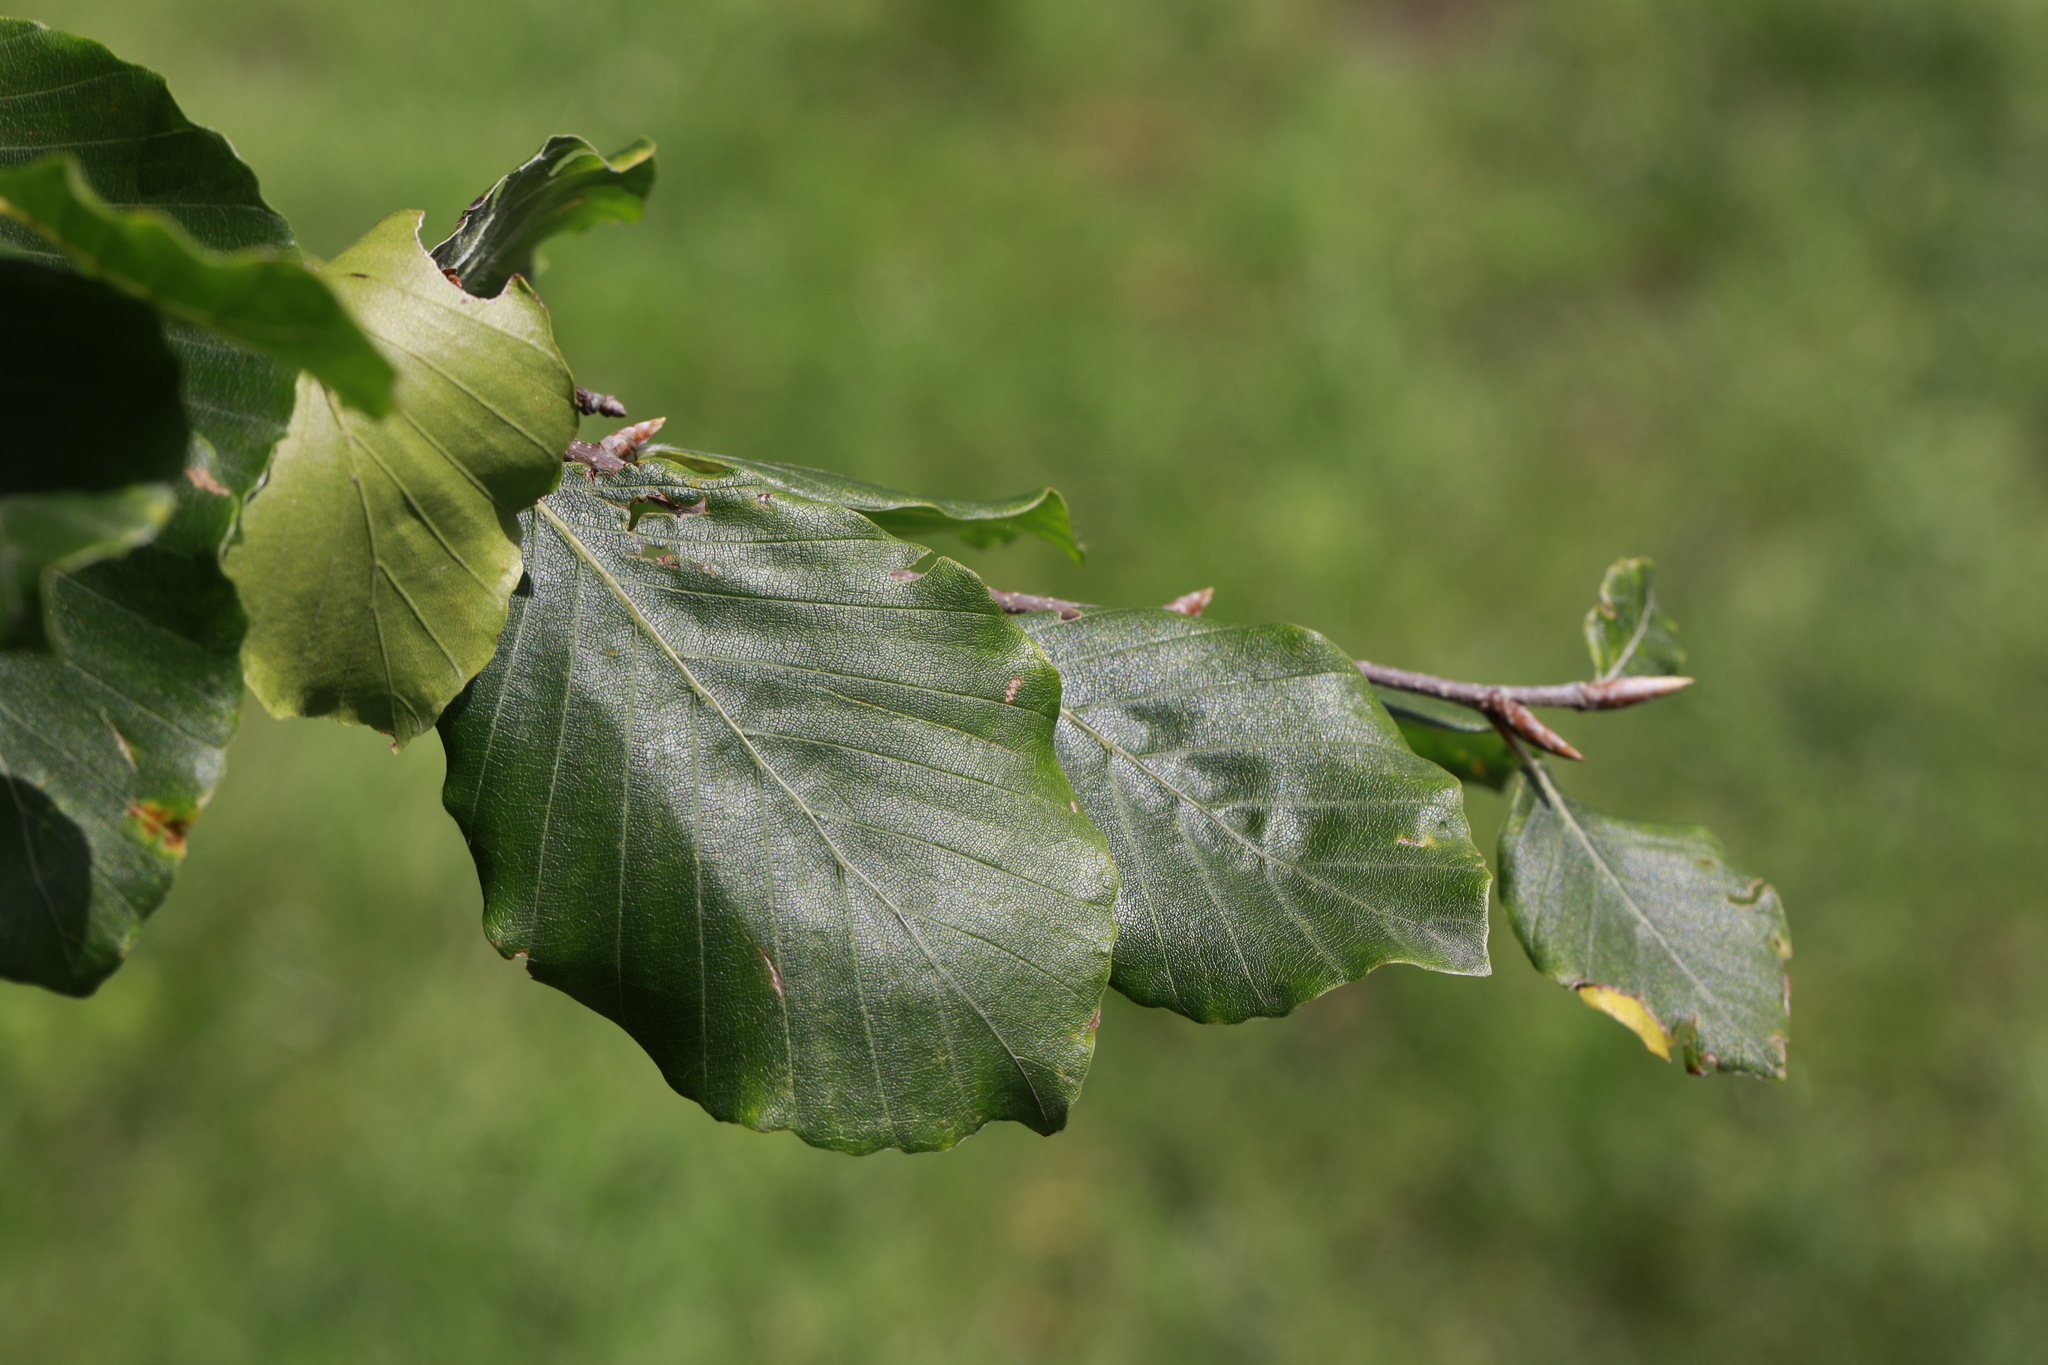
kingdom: Plantae
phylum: Tracheophyta
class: Magnoliopsida
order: Fagales
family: Fagaceae
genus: Fagus
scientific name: Fagus sylvatica
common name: Beech
